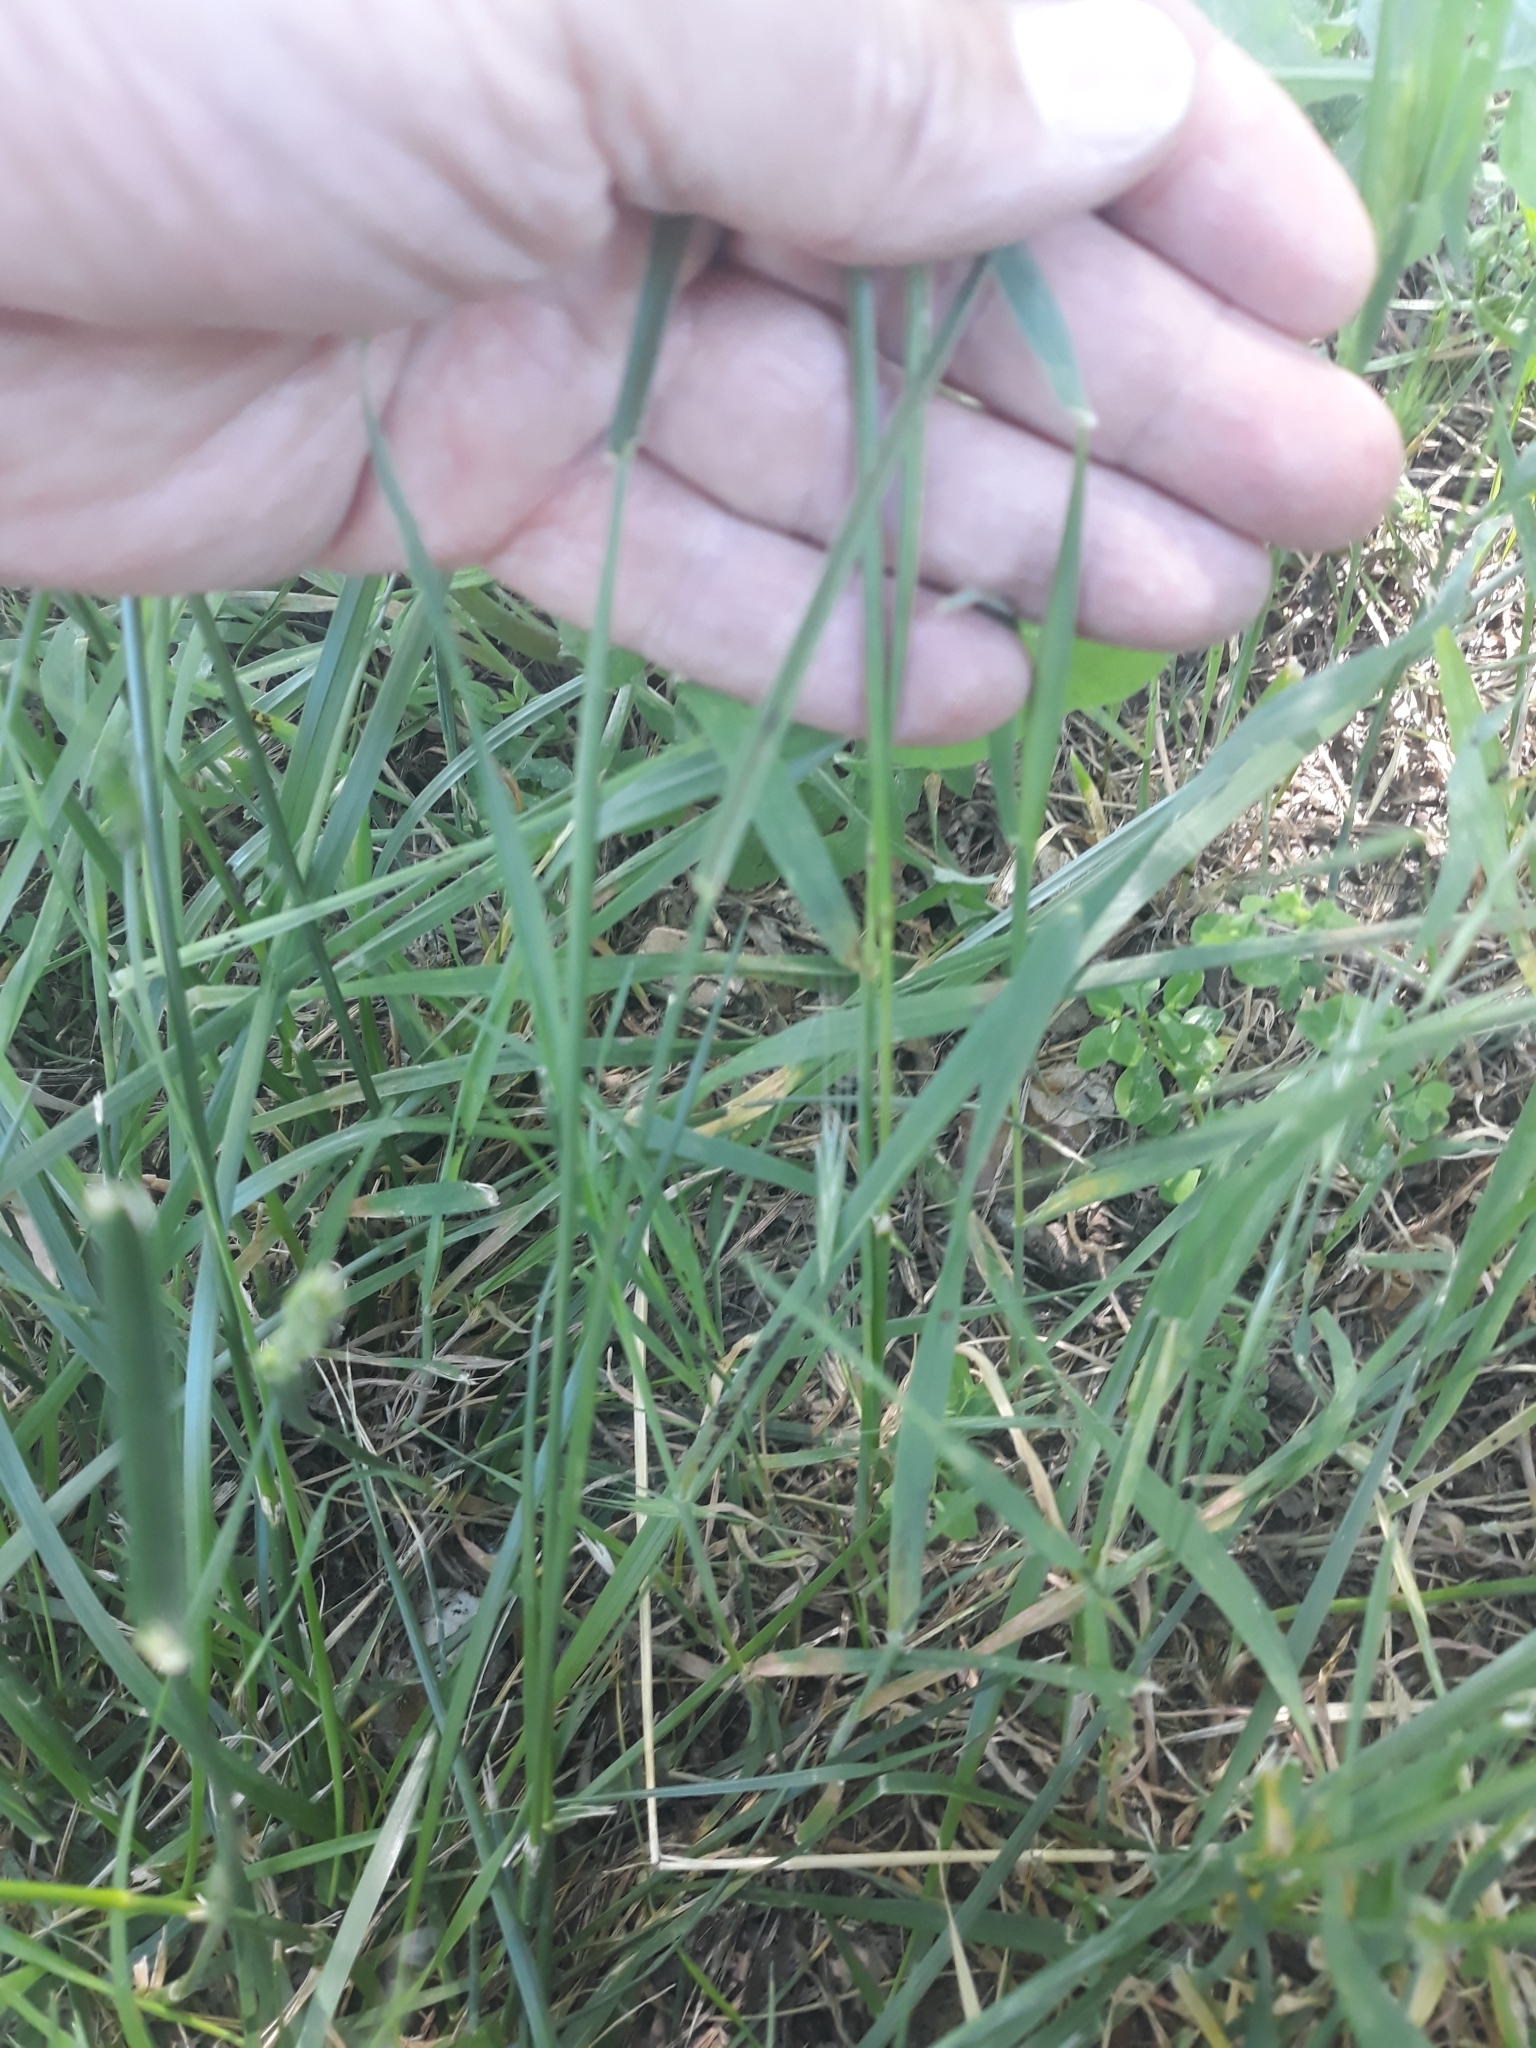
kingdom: Plantae
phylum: Tracheophyta
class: Liliopsida
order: Poales
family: Poaceae
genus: Hordeum
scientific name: Hordeum murinum
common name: Wall barley
